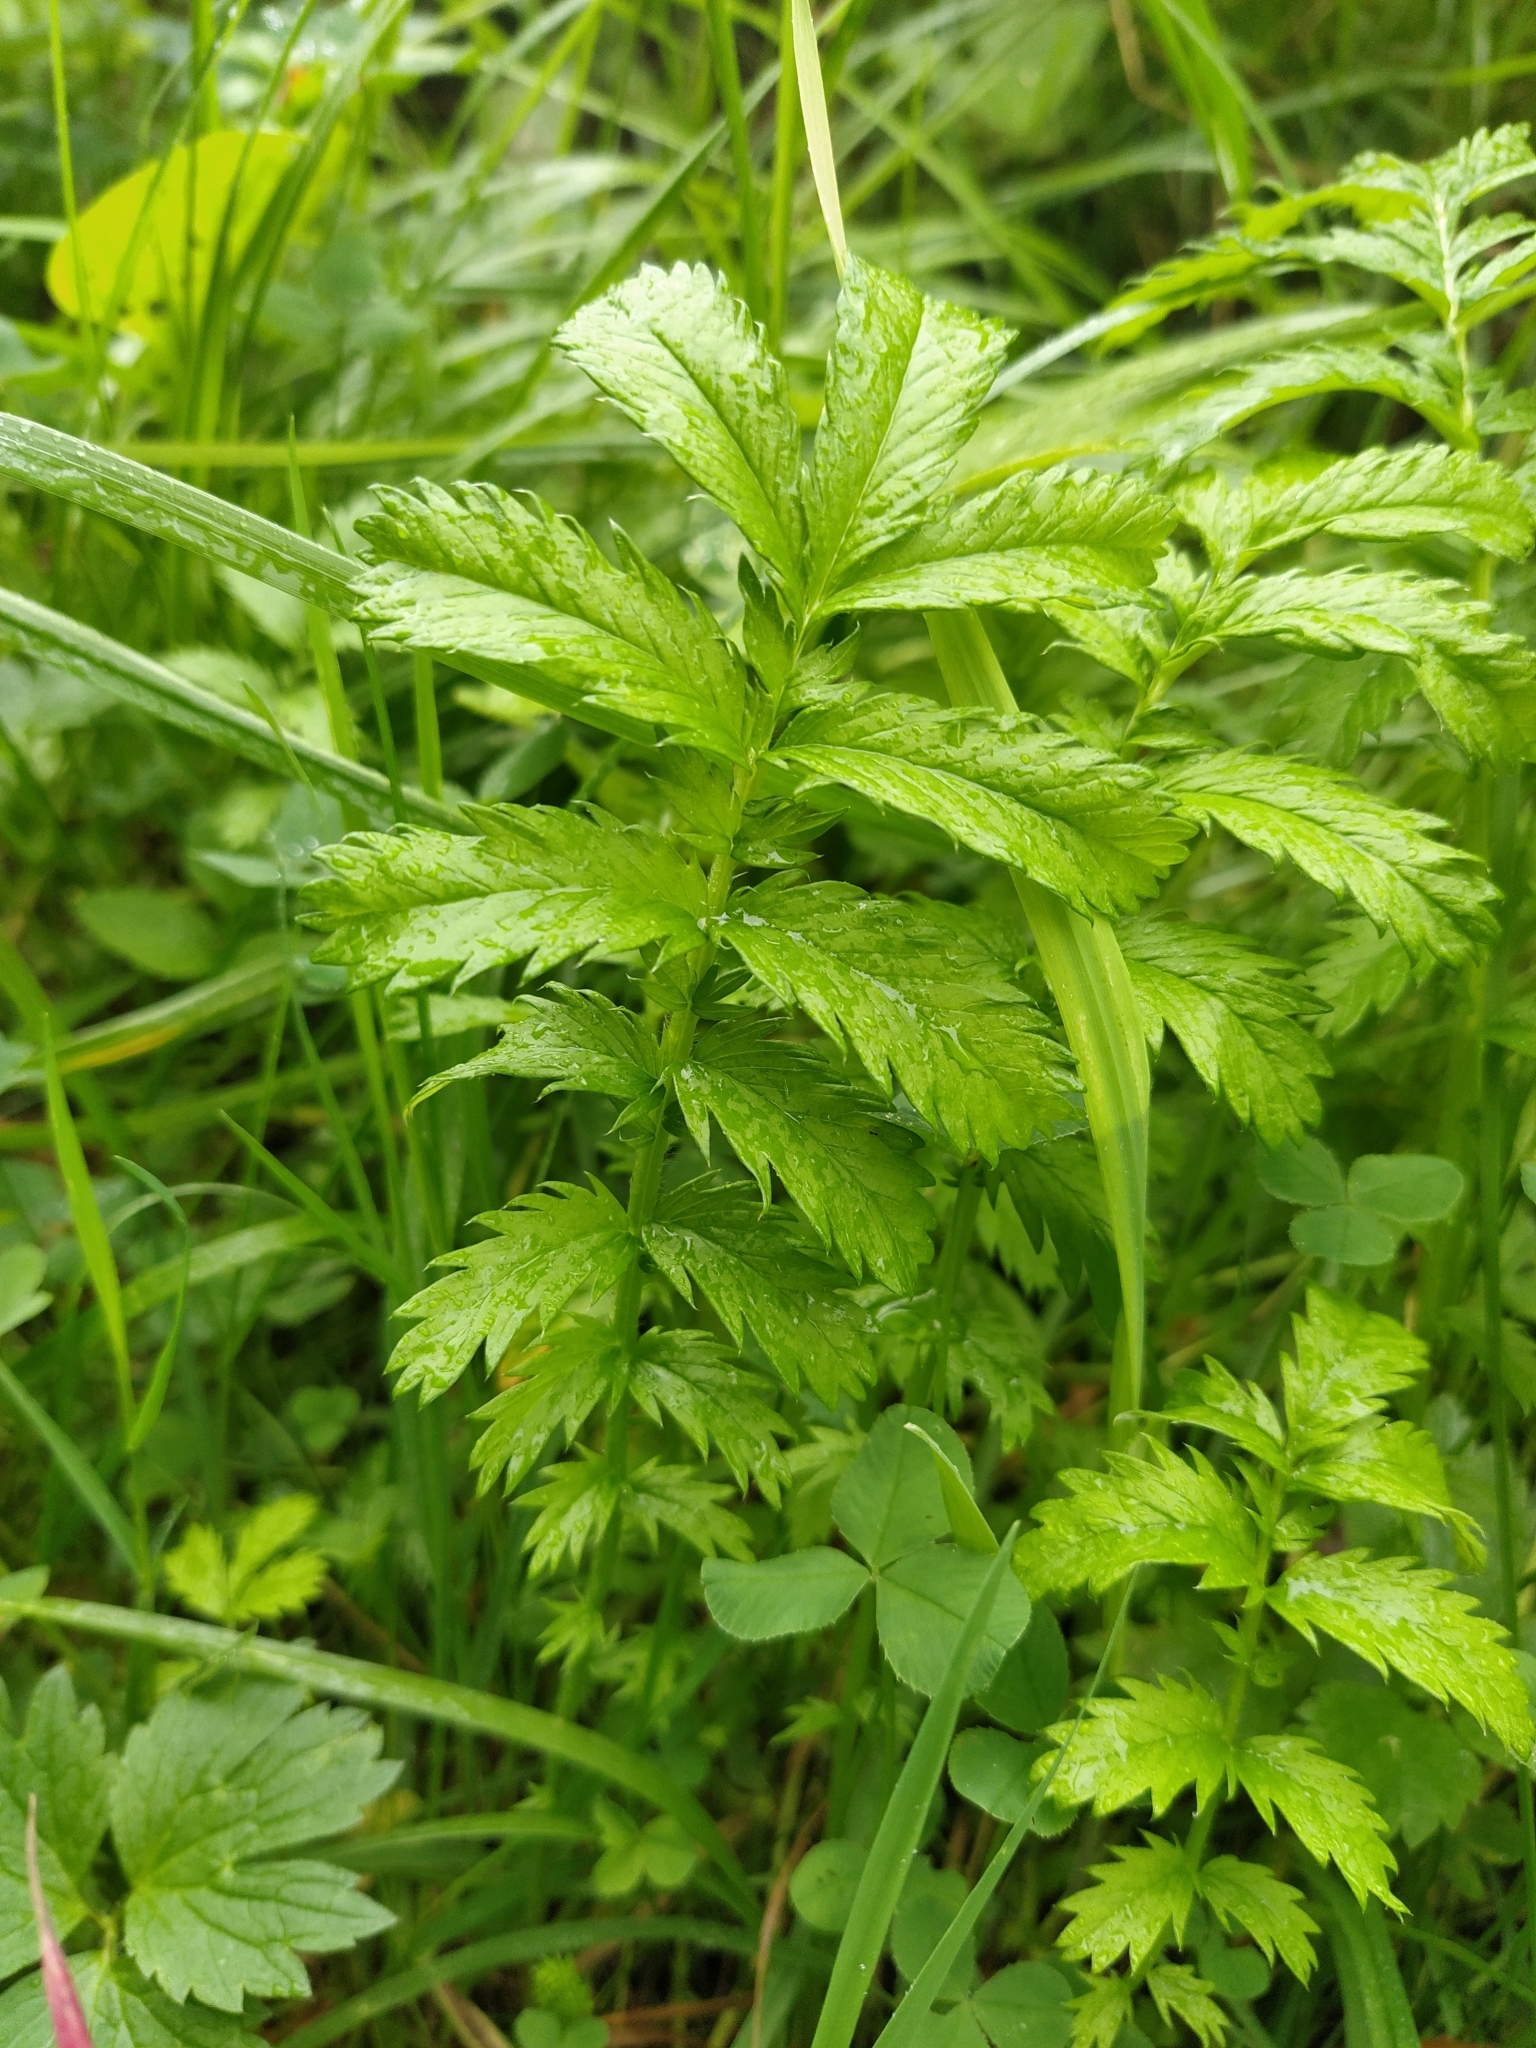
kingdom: Plantae
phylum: Tracheophyta
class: Magnoliopsida
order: Rosales
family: Rosaceae
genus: Argentina
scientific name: Argentina anserina
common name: Common silverweed
